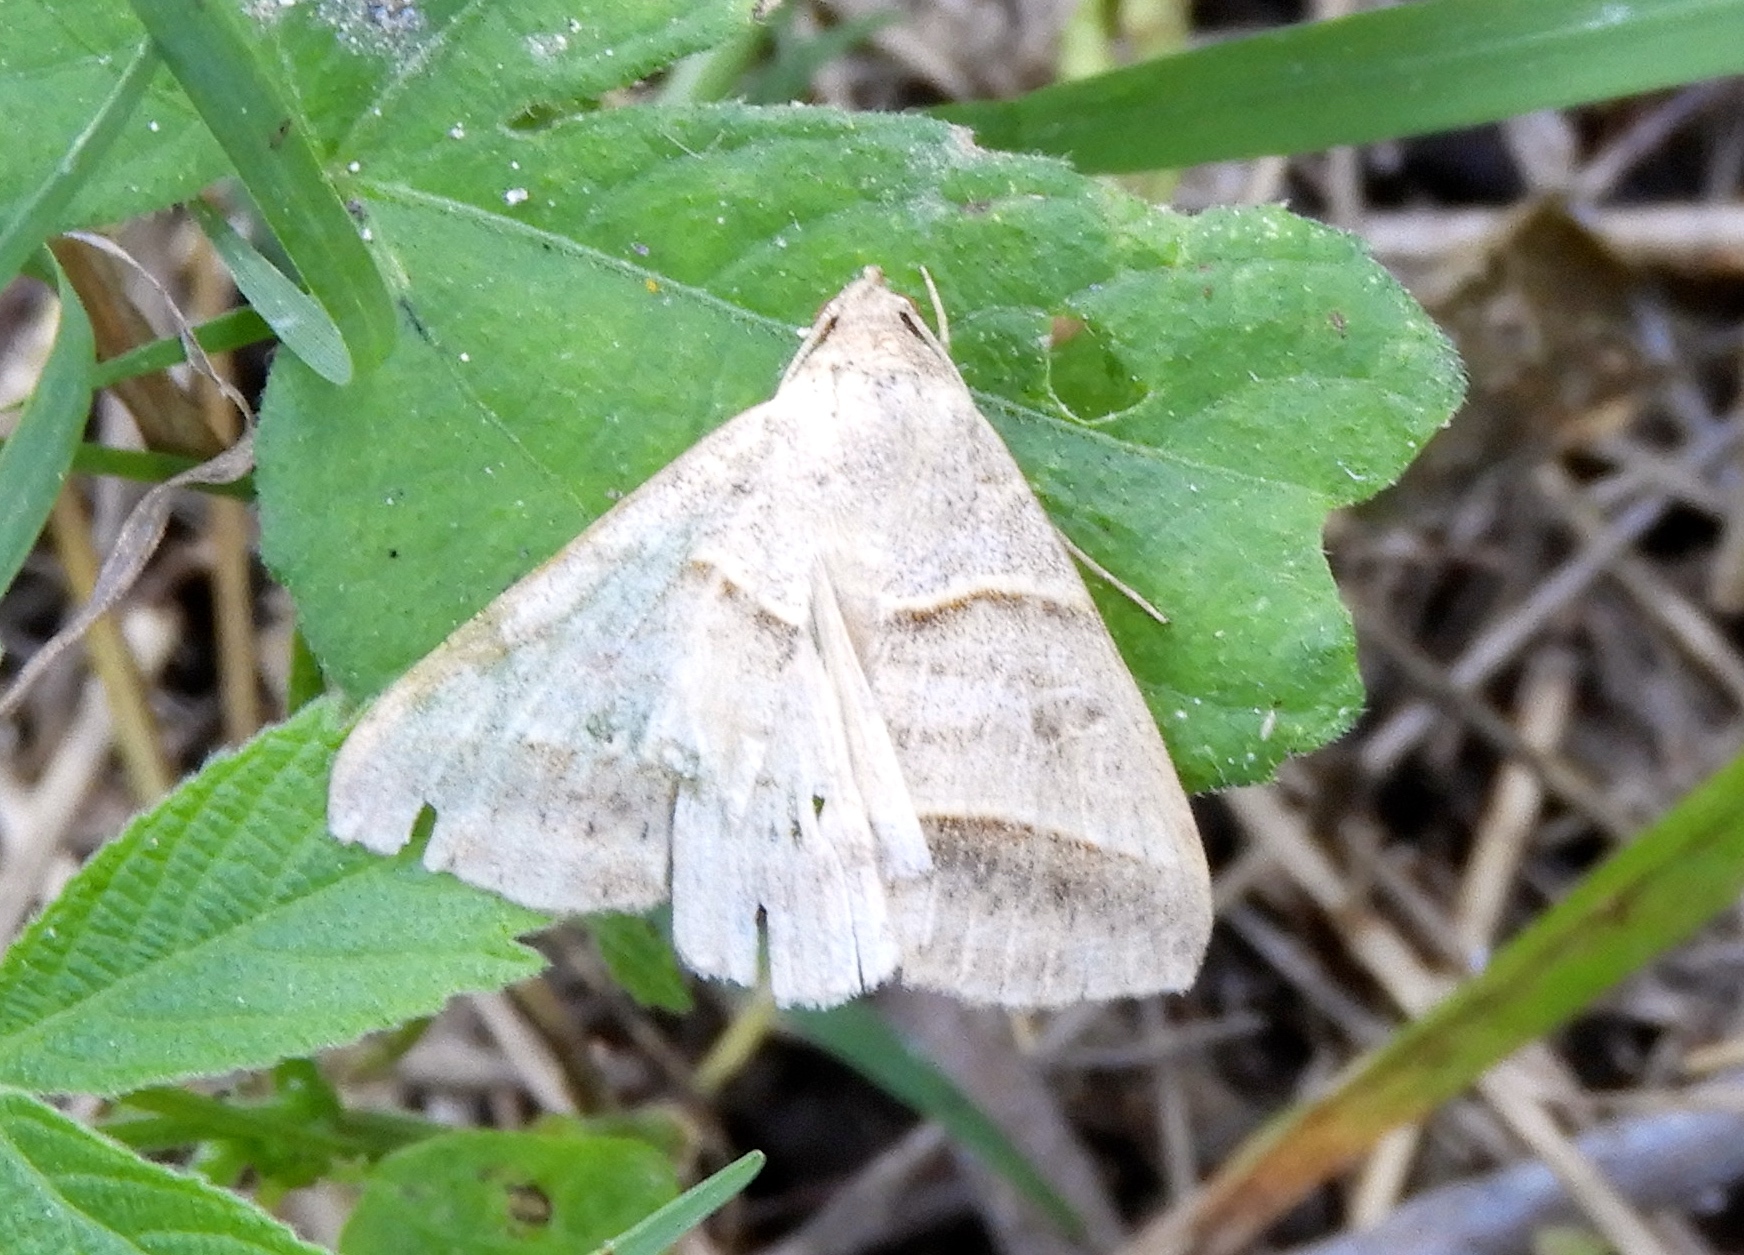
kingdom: Animalia
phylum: Arthropoda
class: Insecta
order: Lepidoptera
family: Erebidae
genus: Ptichodis
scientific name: Ptichodis vinculum
